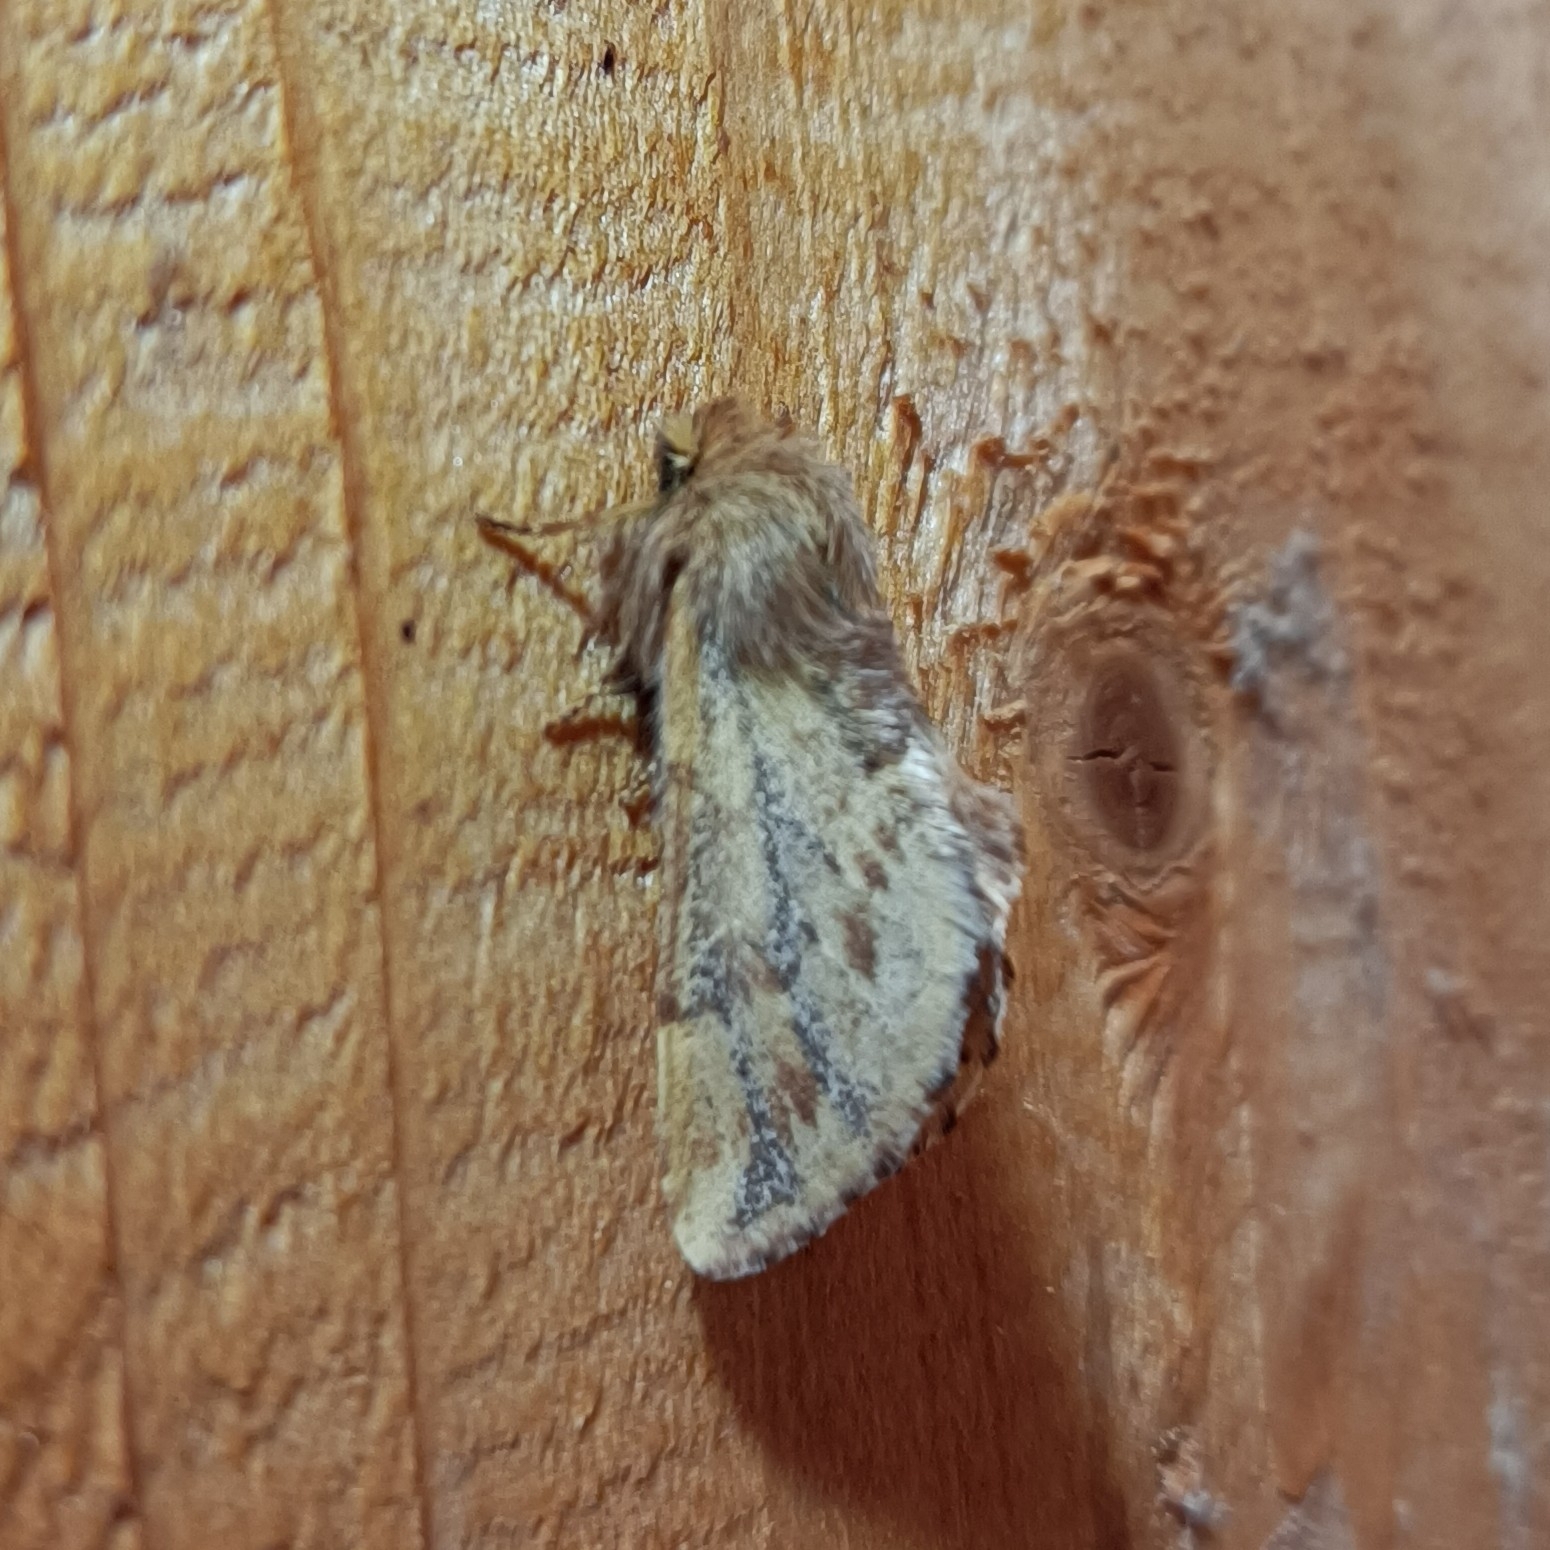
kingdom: Animalia
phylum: Arthropoda
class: Insecta
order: Lepidoptera
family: Notodontidae
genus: Ptilophora
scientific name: Ptilophora plumigera
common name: Plumed prominent
